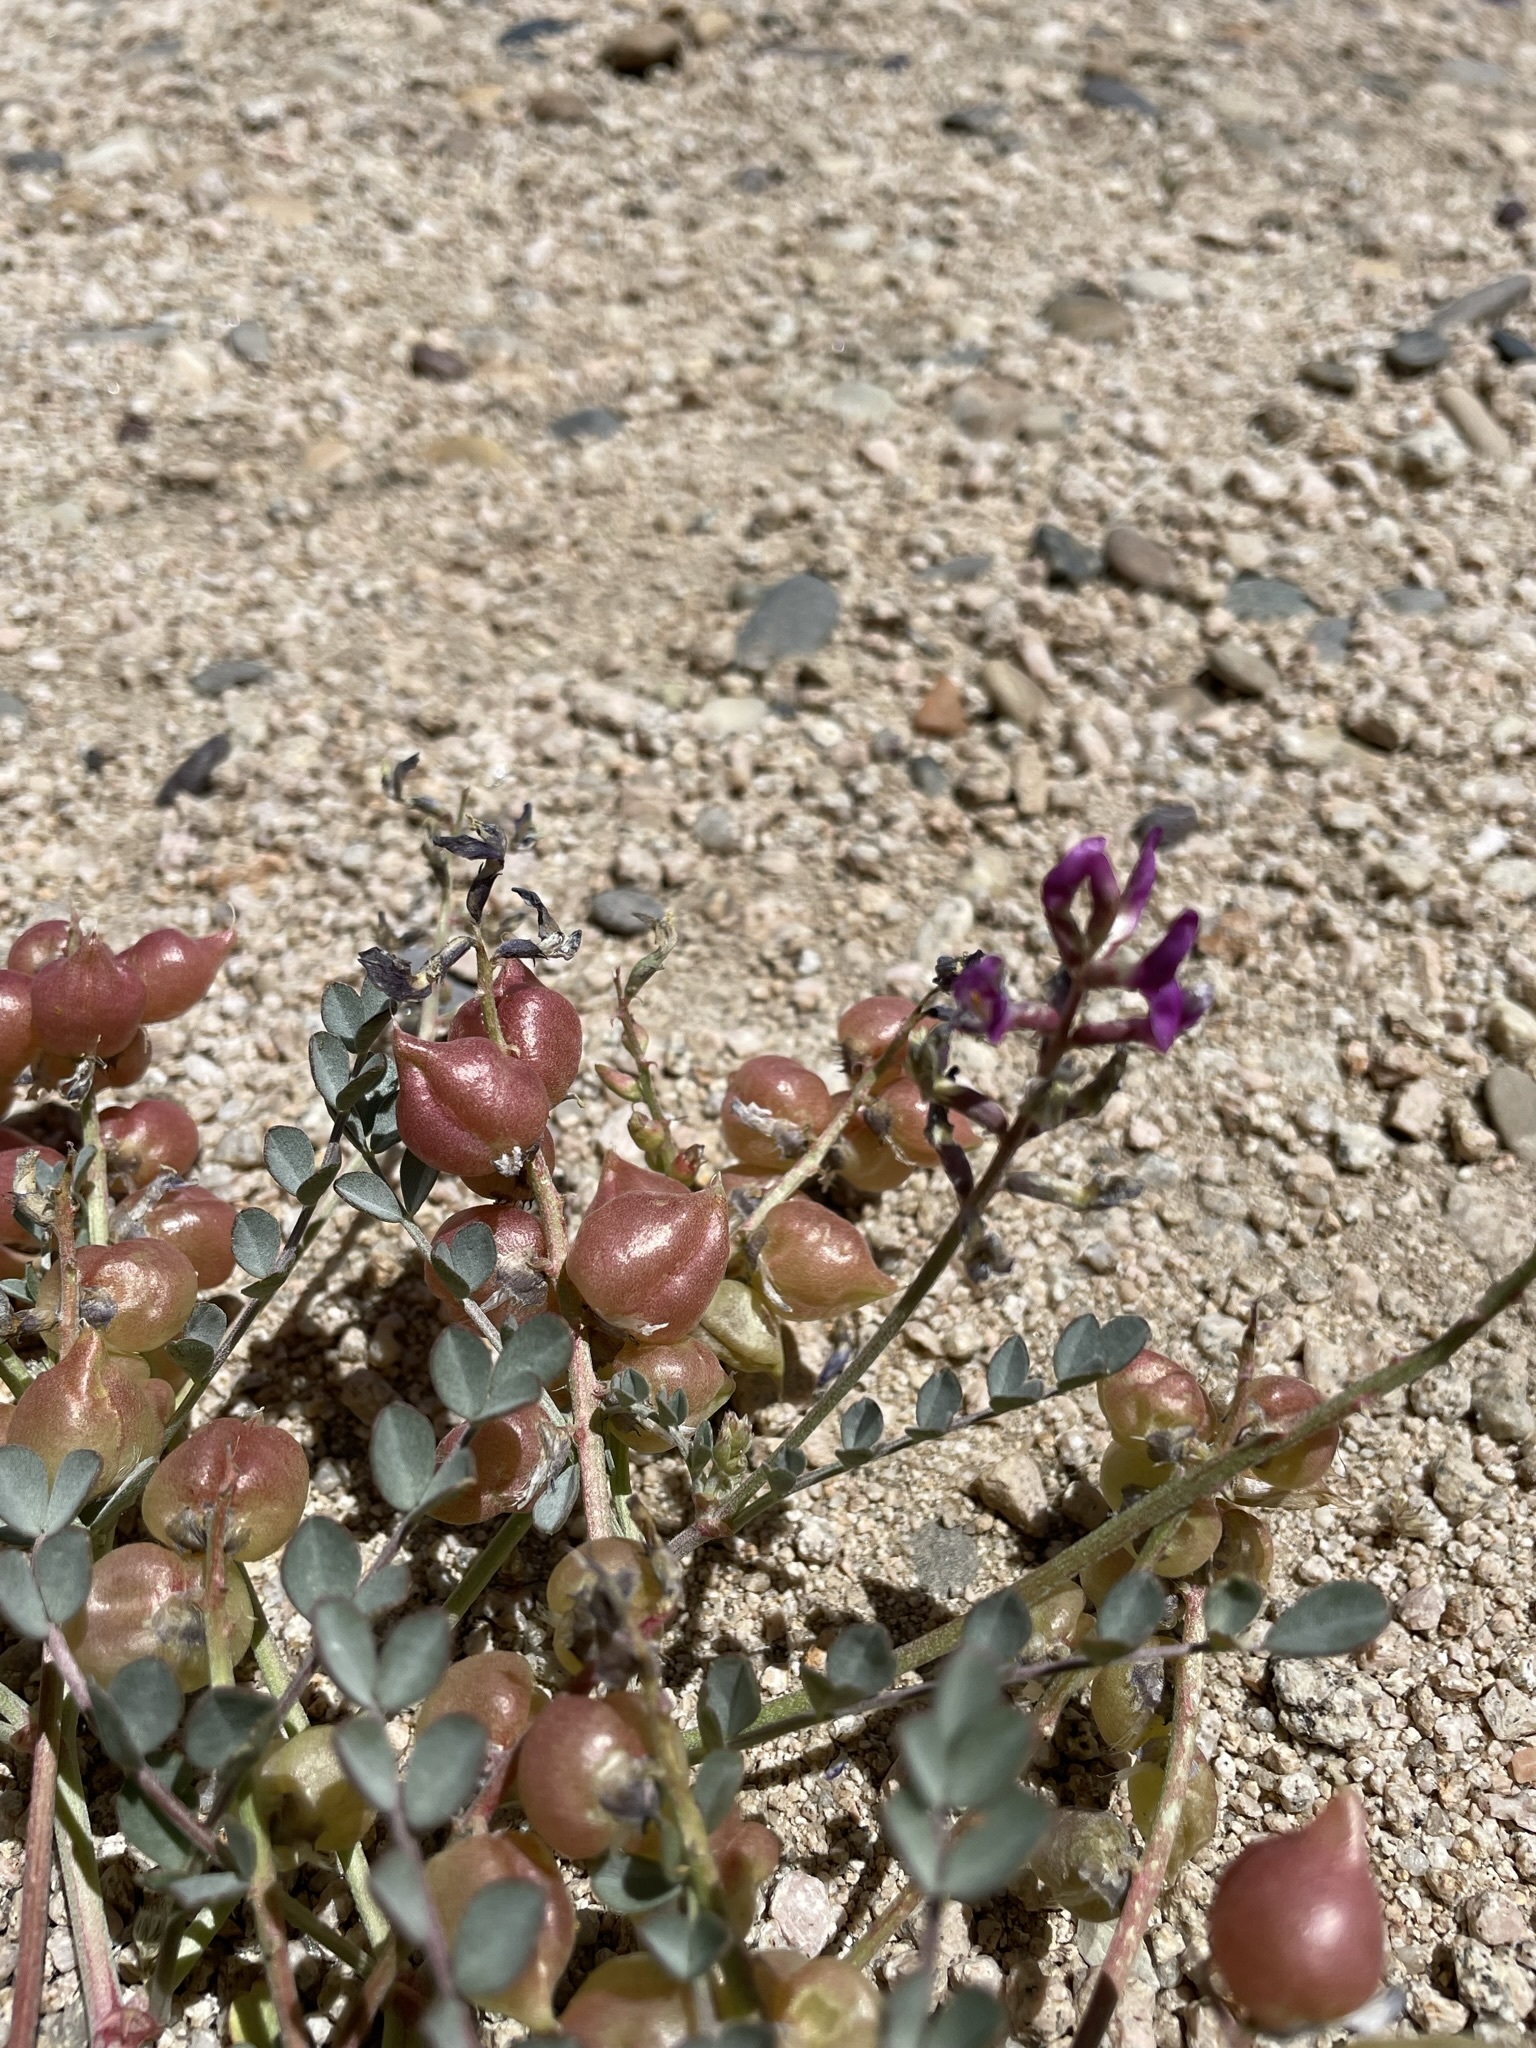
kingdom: Plantae
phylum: Tracheophyta
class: Magnoliopsida
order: Fabales
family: Fabaceae
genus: Astragalus
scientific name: Astragalus lentiginosus
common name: Freckled milkvetch
